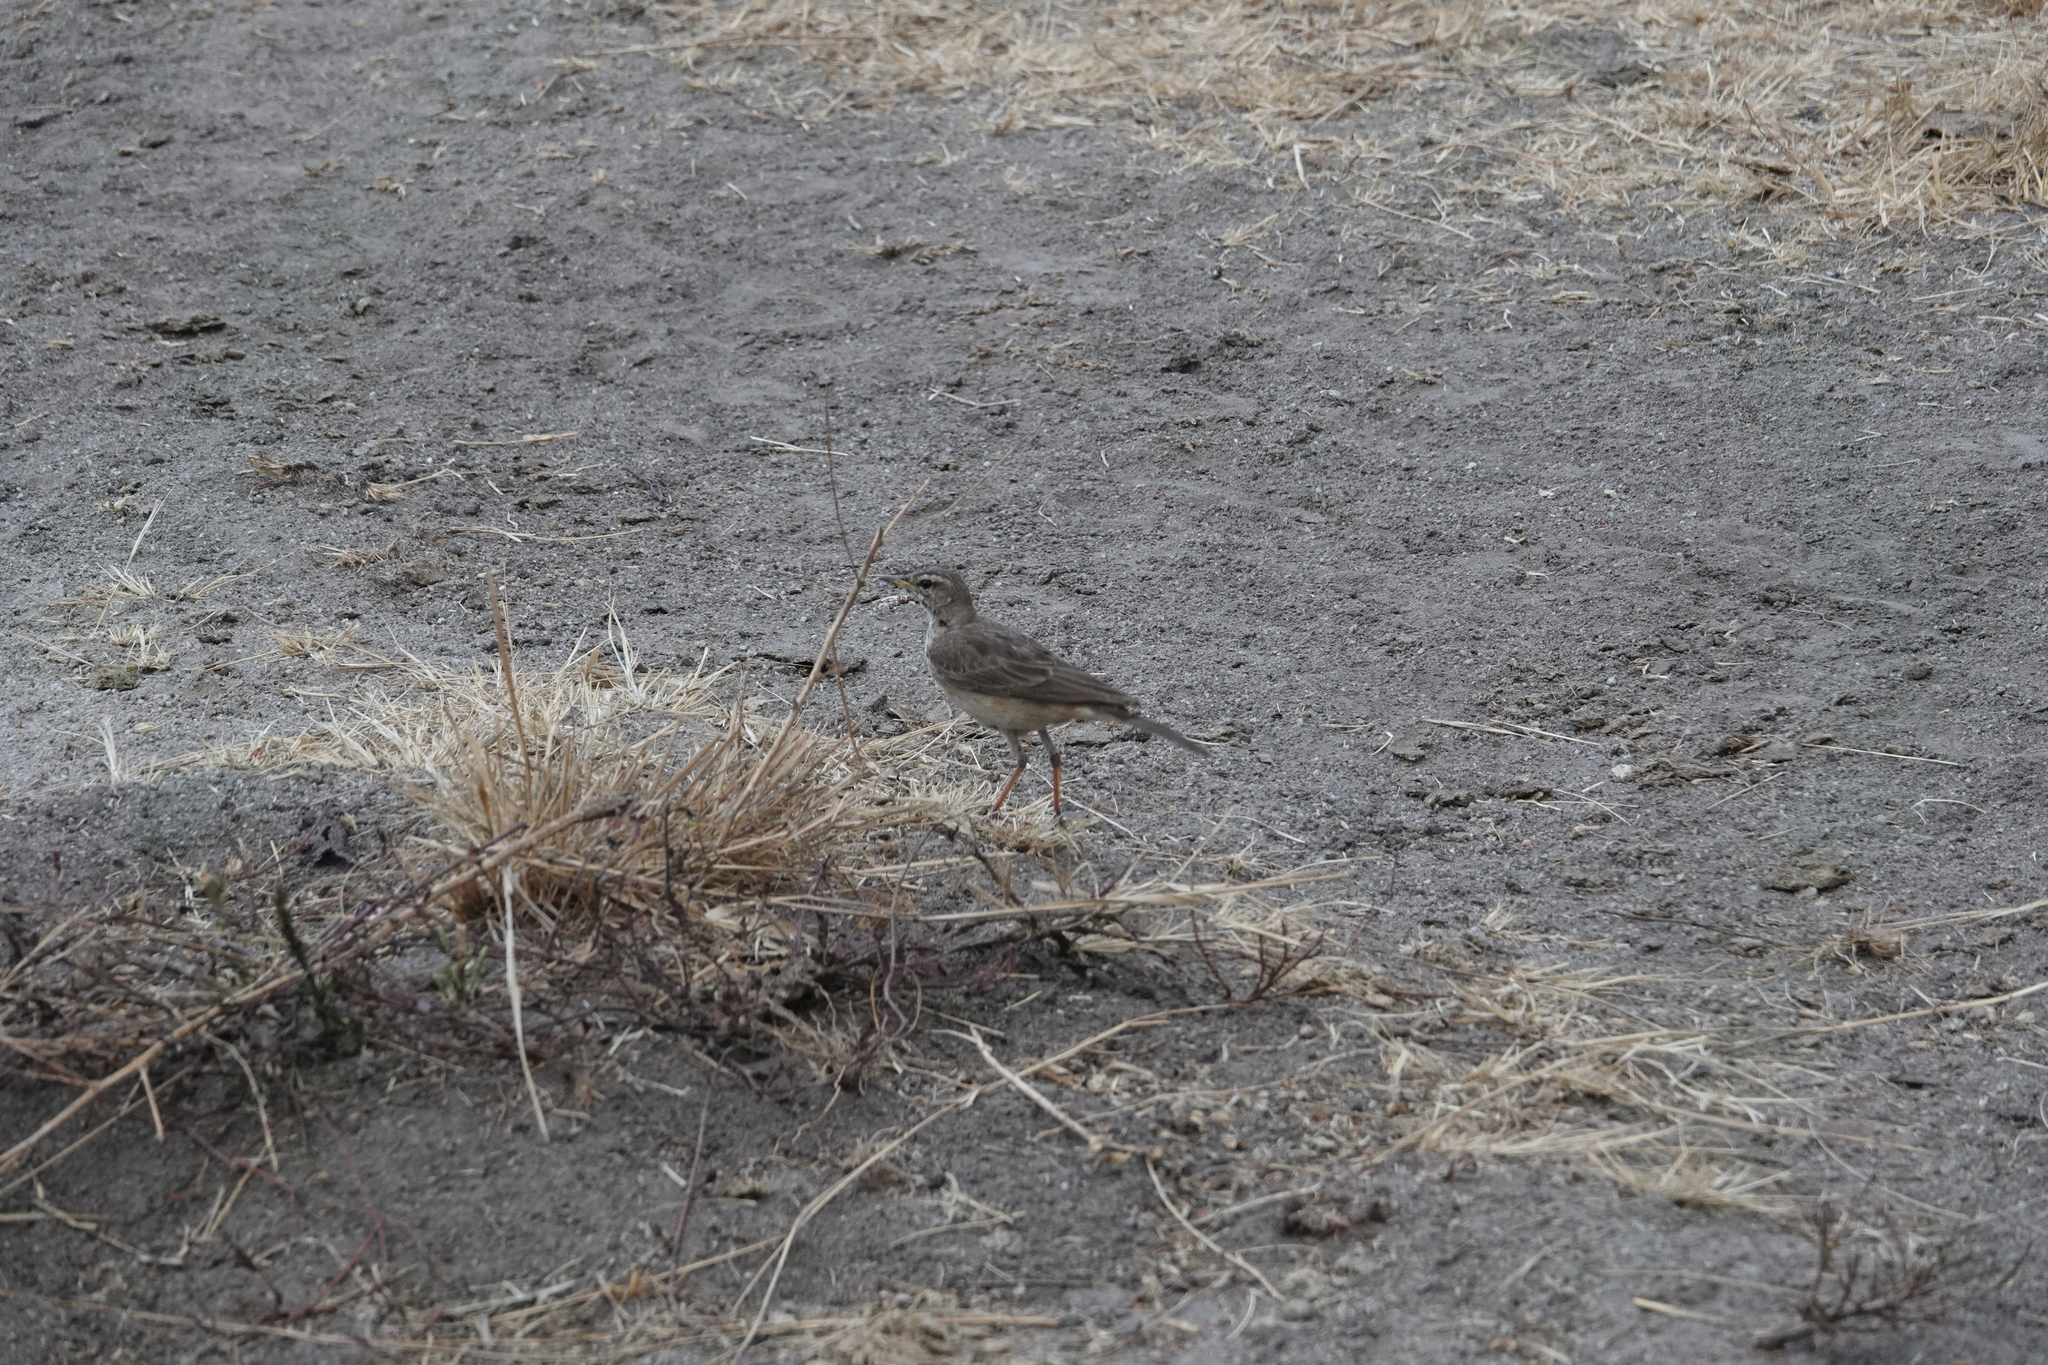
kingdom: Animalia
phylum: Chordata
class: Aves
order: Passeriformes
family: Motacillidae
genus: Anthus
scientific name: Anthus leucophrys
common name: Plain-backed pipit
